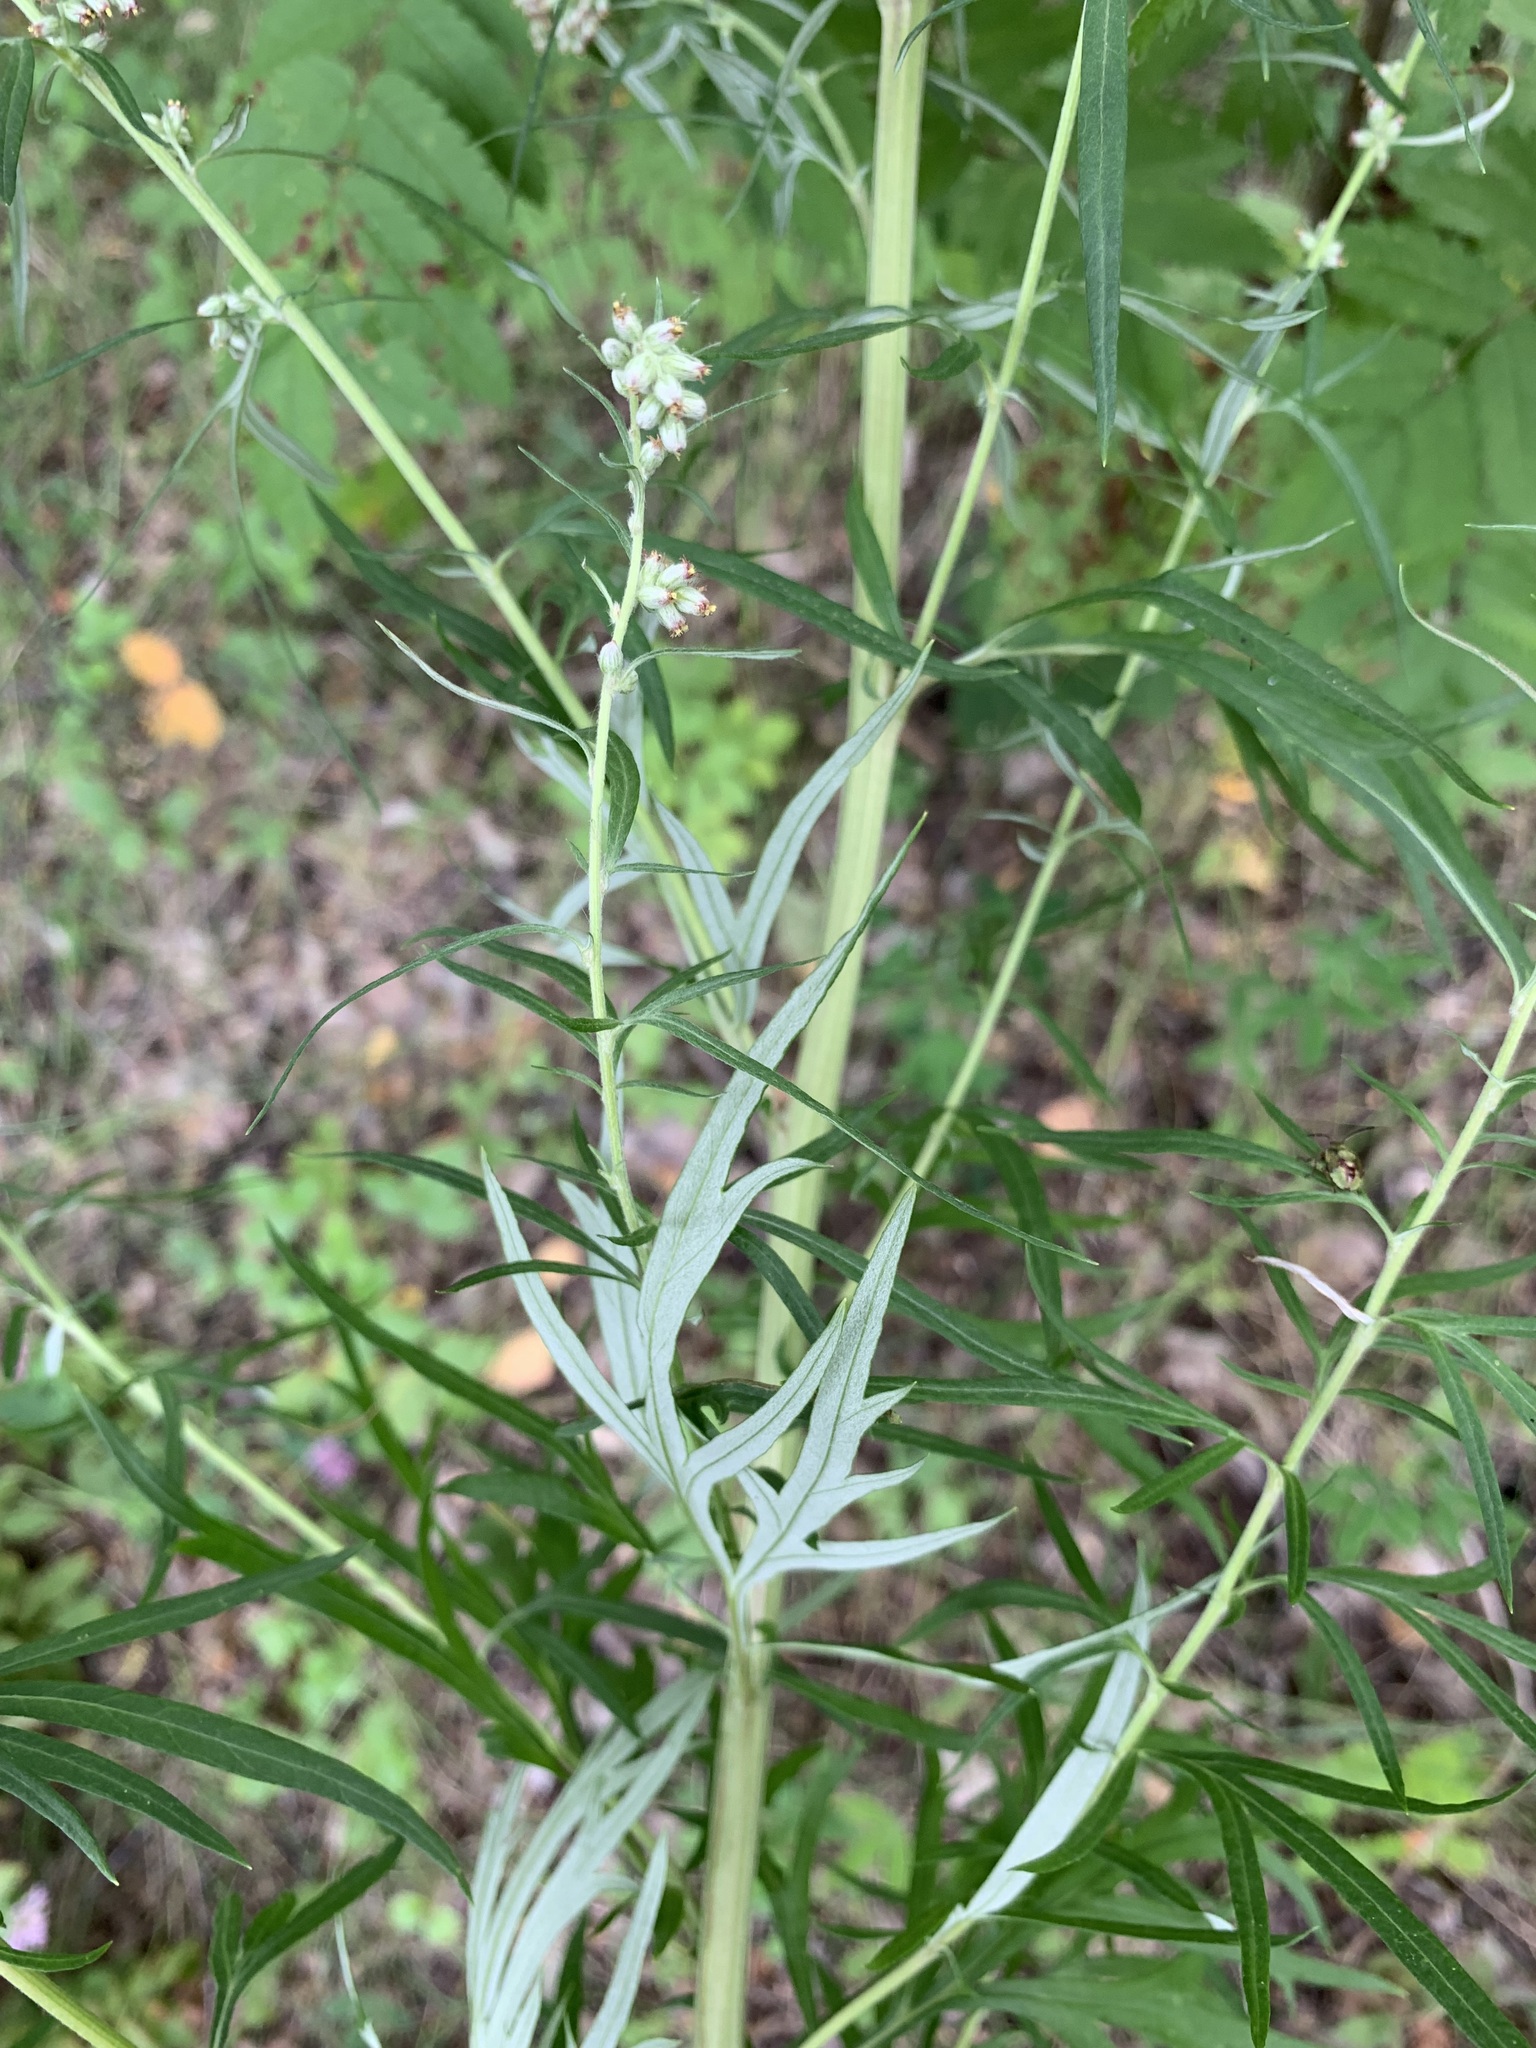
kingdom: Plantae
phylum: Tracheophyta
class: Magnoliopsida
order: Asterales
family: Asteraceae
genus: Artemisia
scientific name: Artemisia vulgaris
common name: Mugwort
